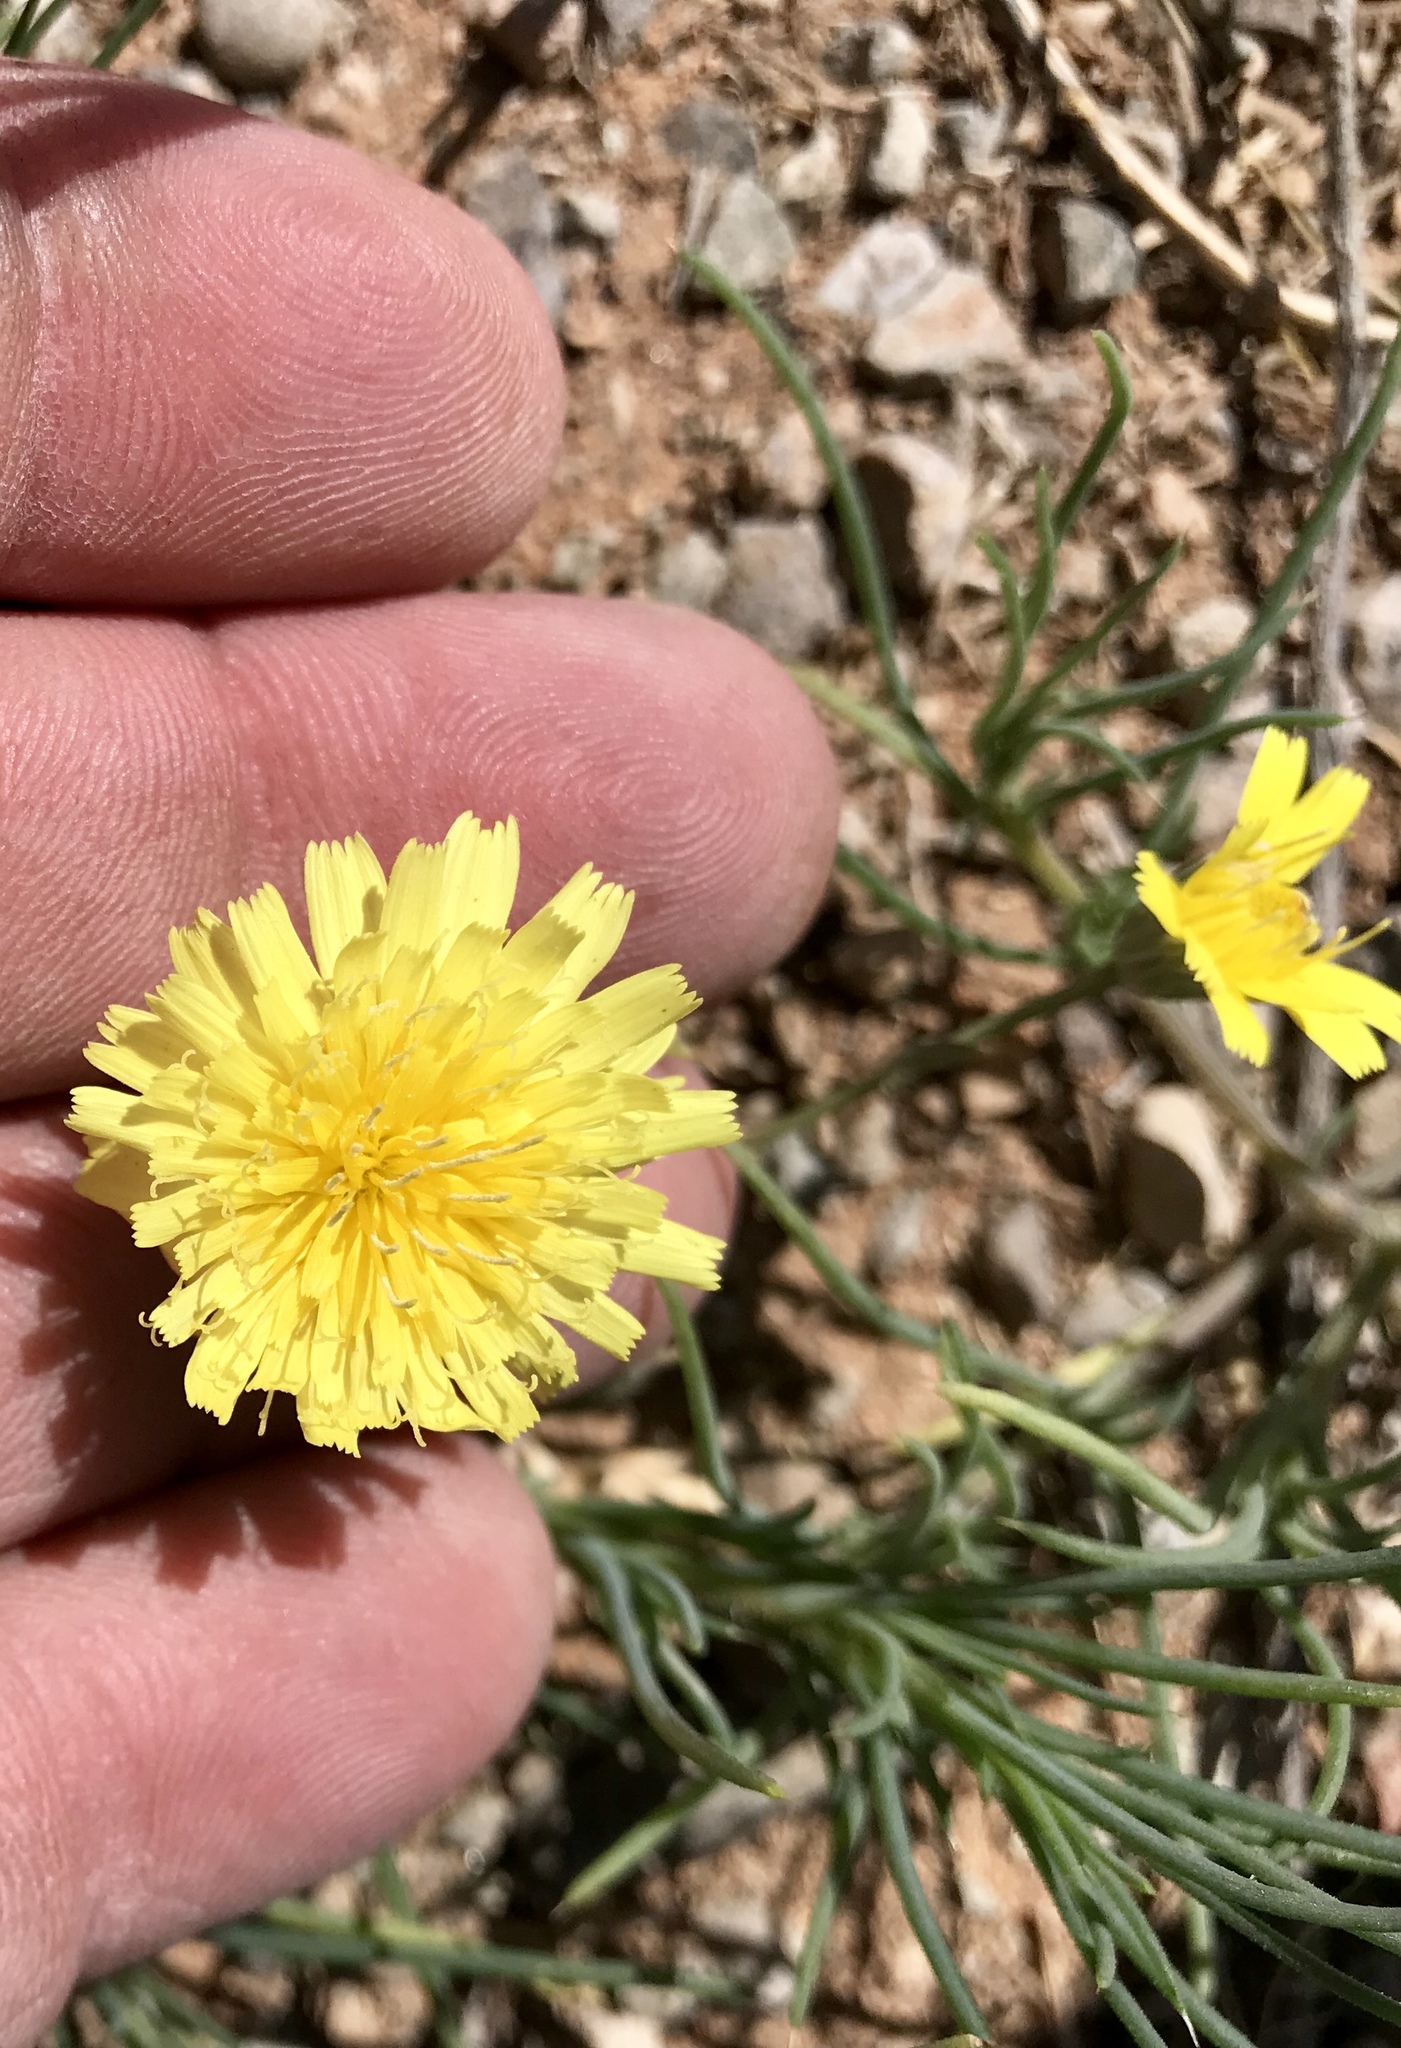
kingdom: Plantae
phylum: Tracheophyta
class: Magnoliopsida
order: Asterales
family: Asteraceae
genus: Malacothrix
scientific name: Malacothrix glabrata
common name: Smooth desert-dandelion
